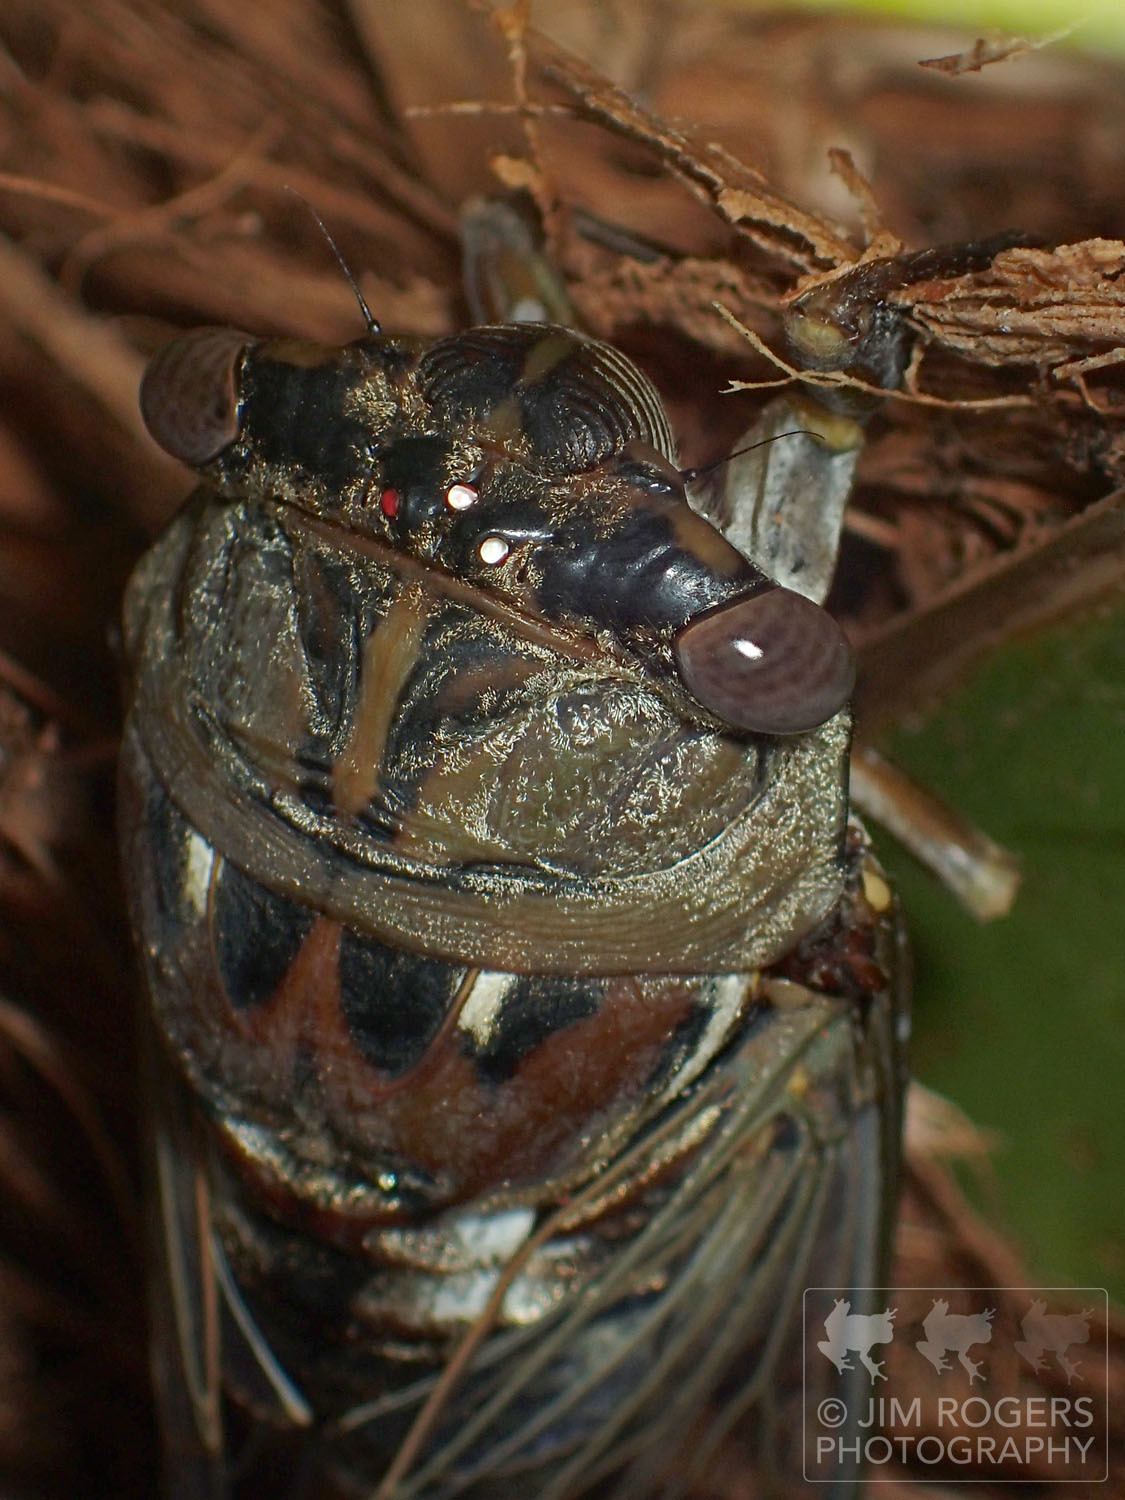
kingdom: Animalia
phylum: Arthropoda
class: Insecta
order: Hemiptera
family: Cicadidae
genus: Megatibicen
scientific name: Megatibicen resonans
